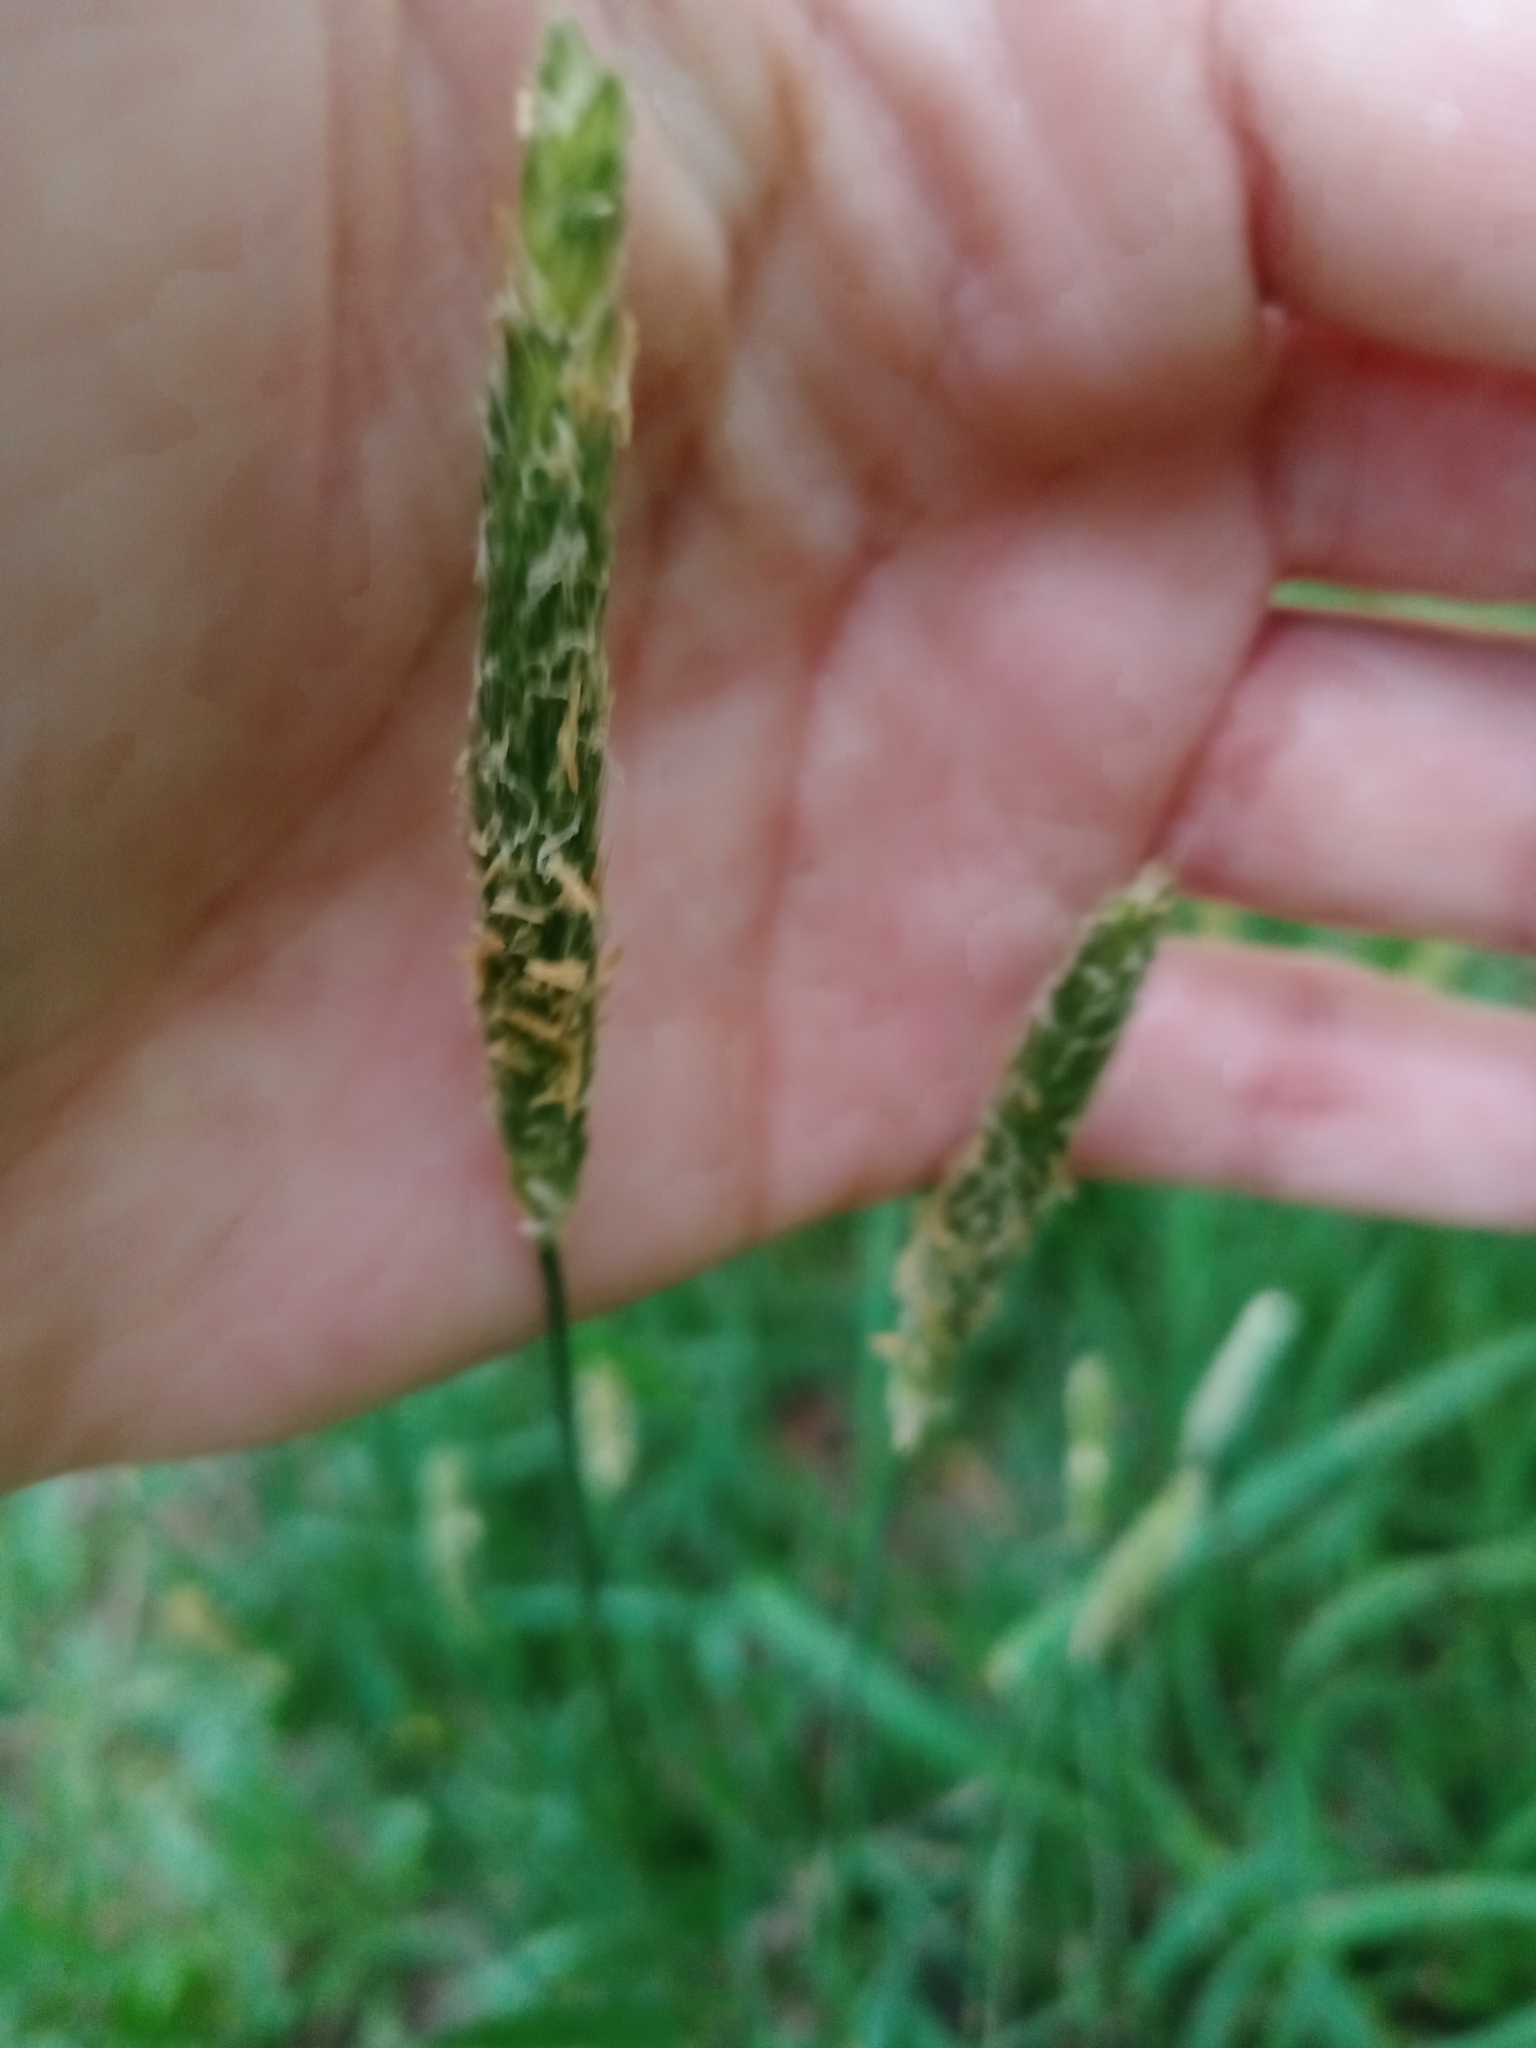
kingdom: Plantae
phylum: Tracheophyta
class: Liliopsida
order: Poales
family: Poaceae
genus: Alopecurus
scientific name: Alopecurus pratensis
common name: Meadow foxtail
